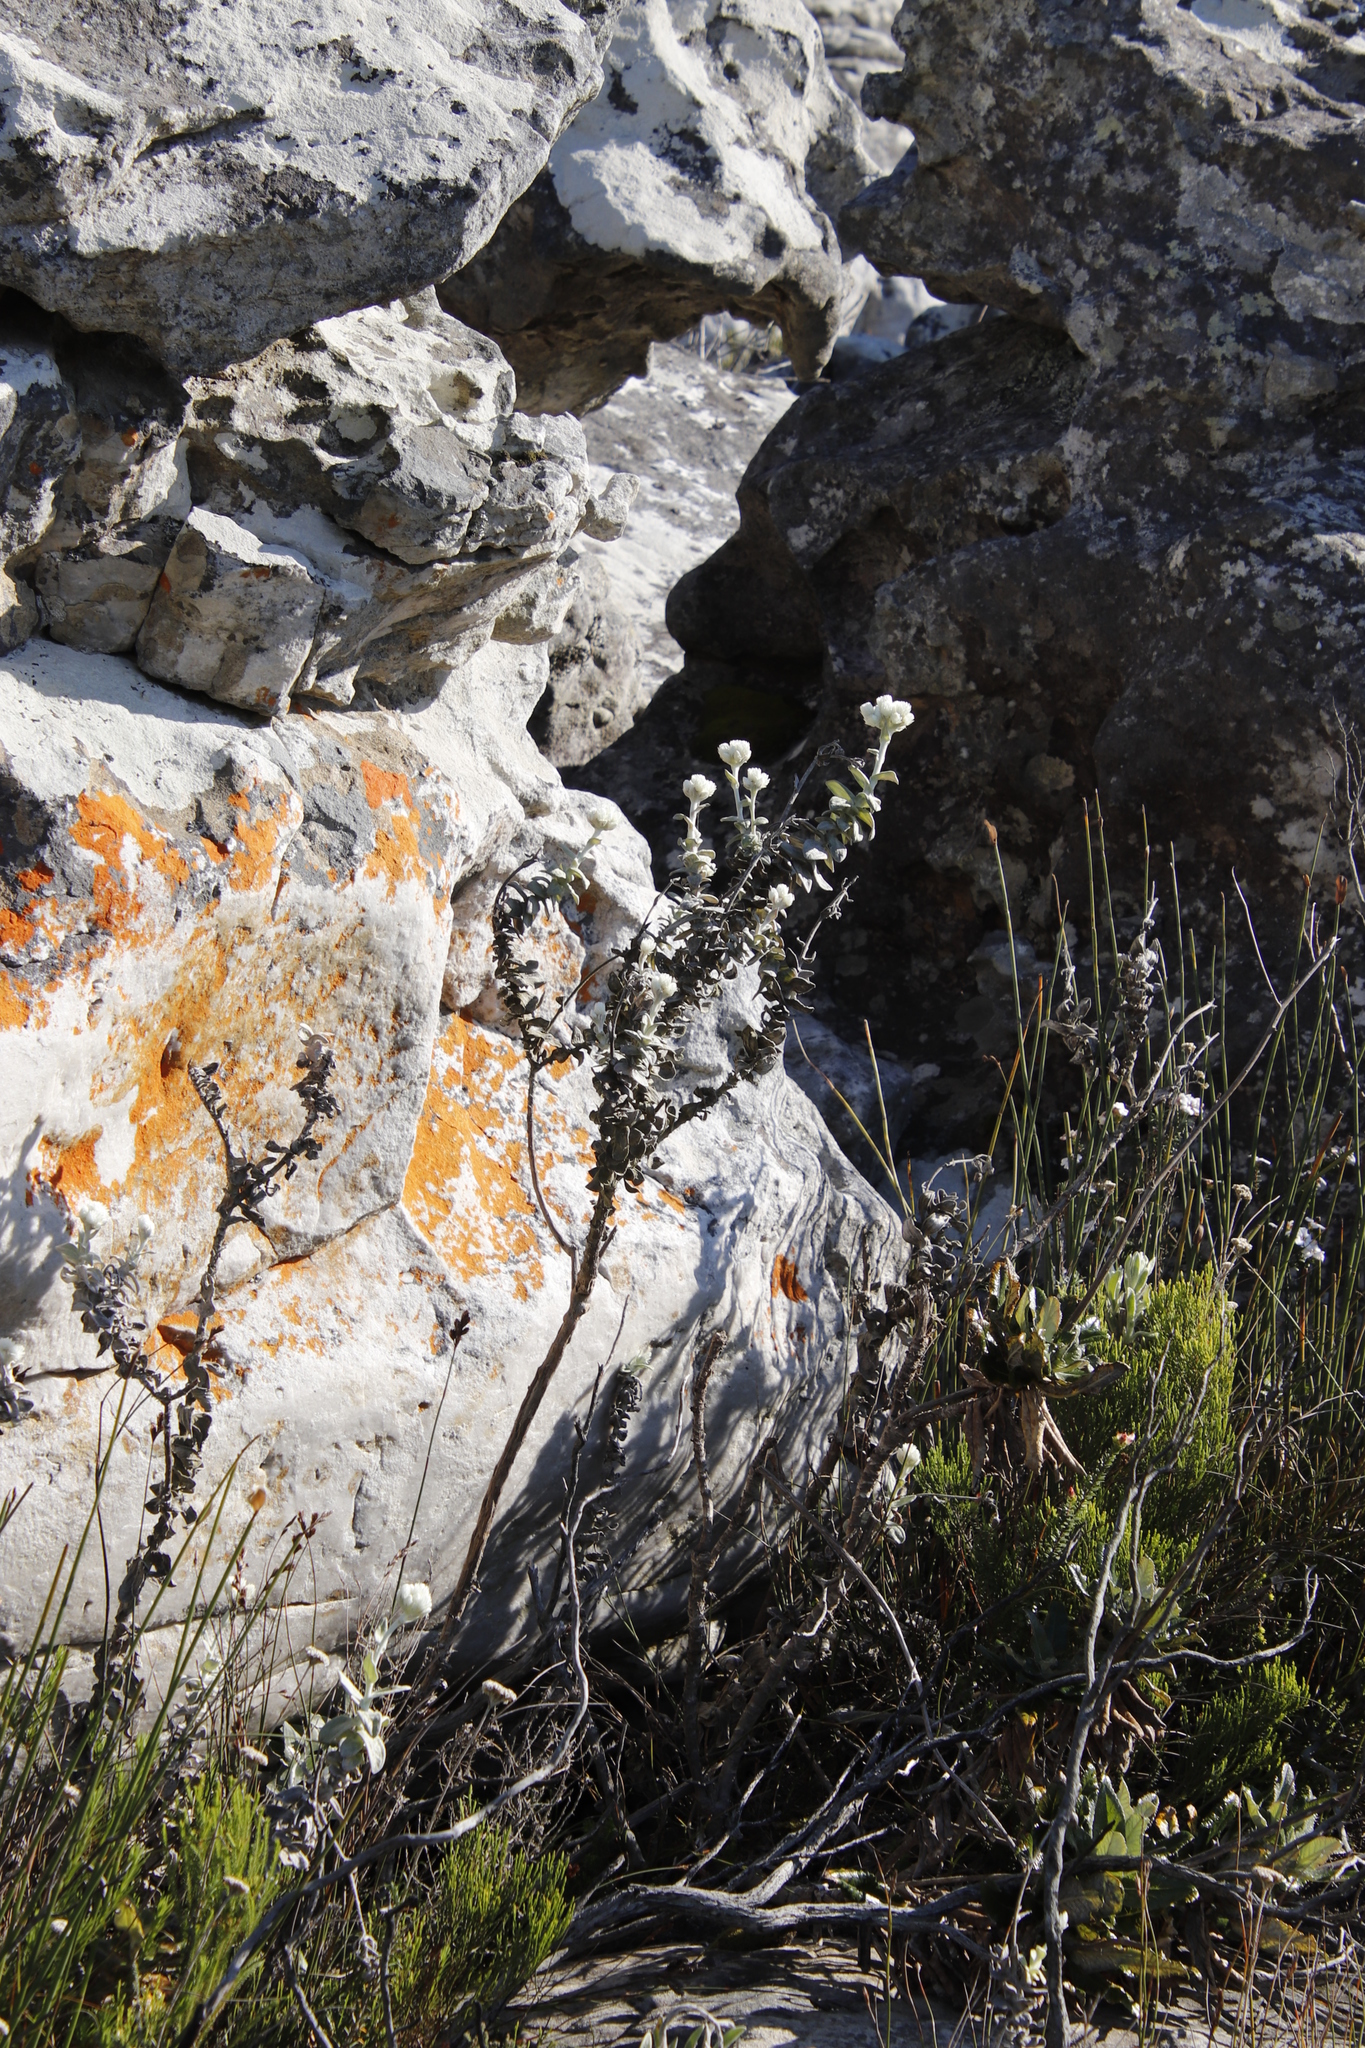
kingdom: Plantae
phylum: Tracheophyta
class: Magnoliopsida
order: Asterales
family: Asteraceae
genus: Helichrysum
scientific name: Helichrysum fruticans
